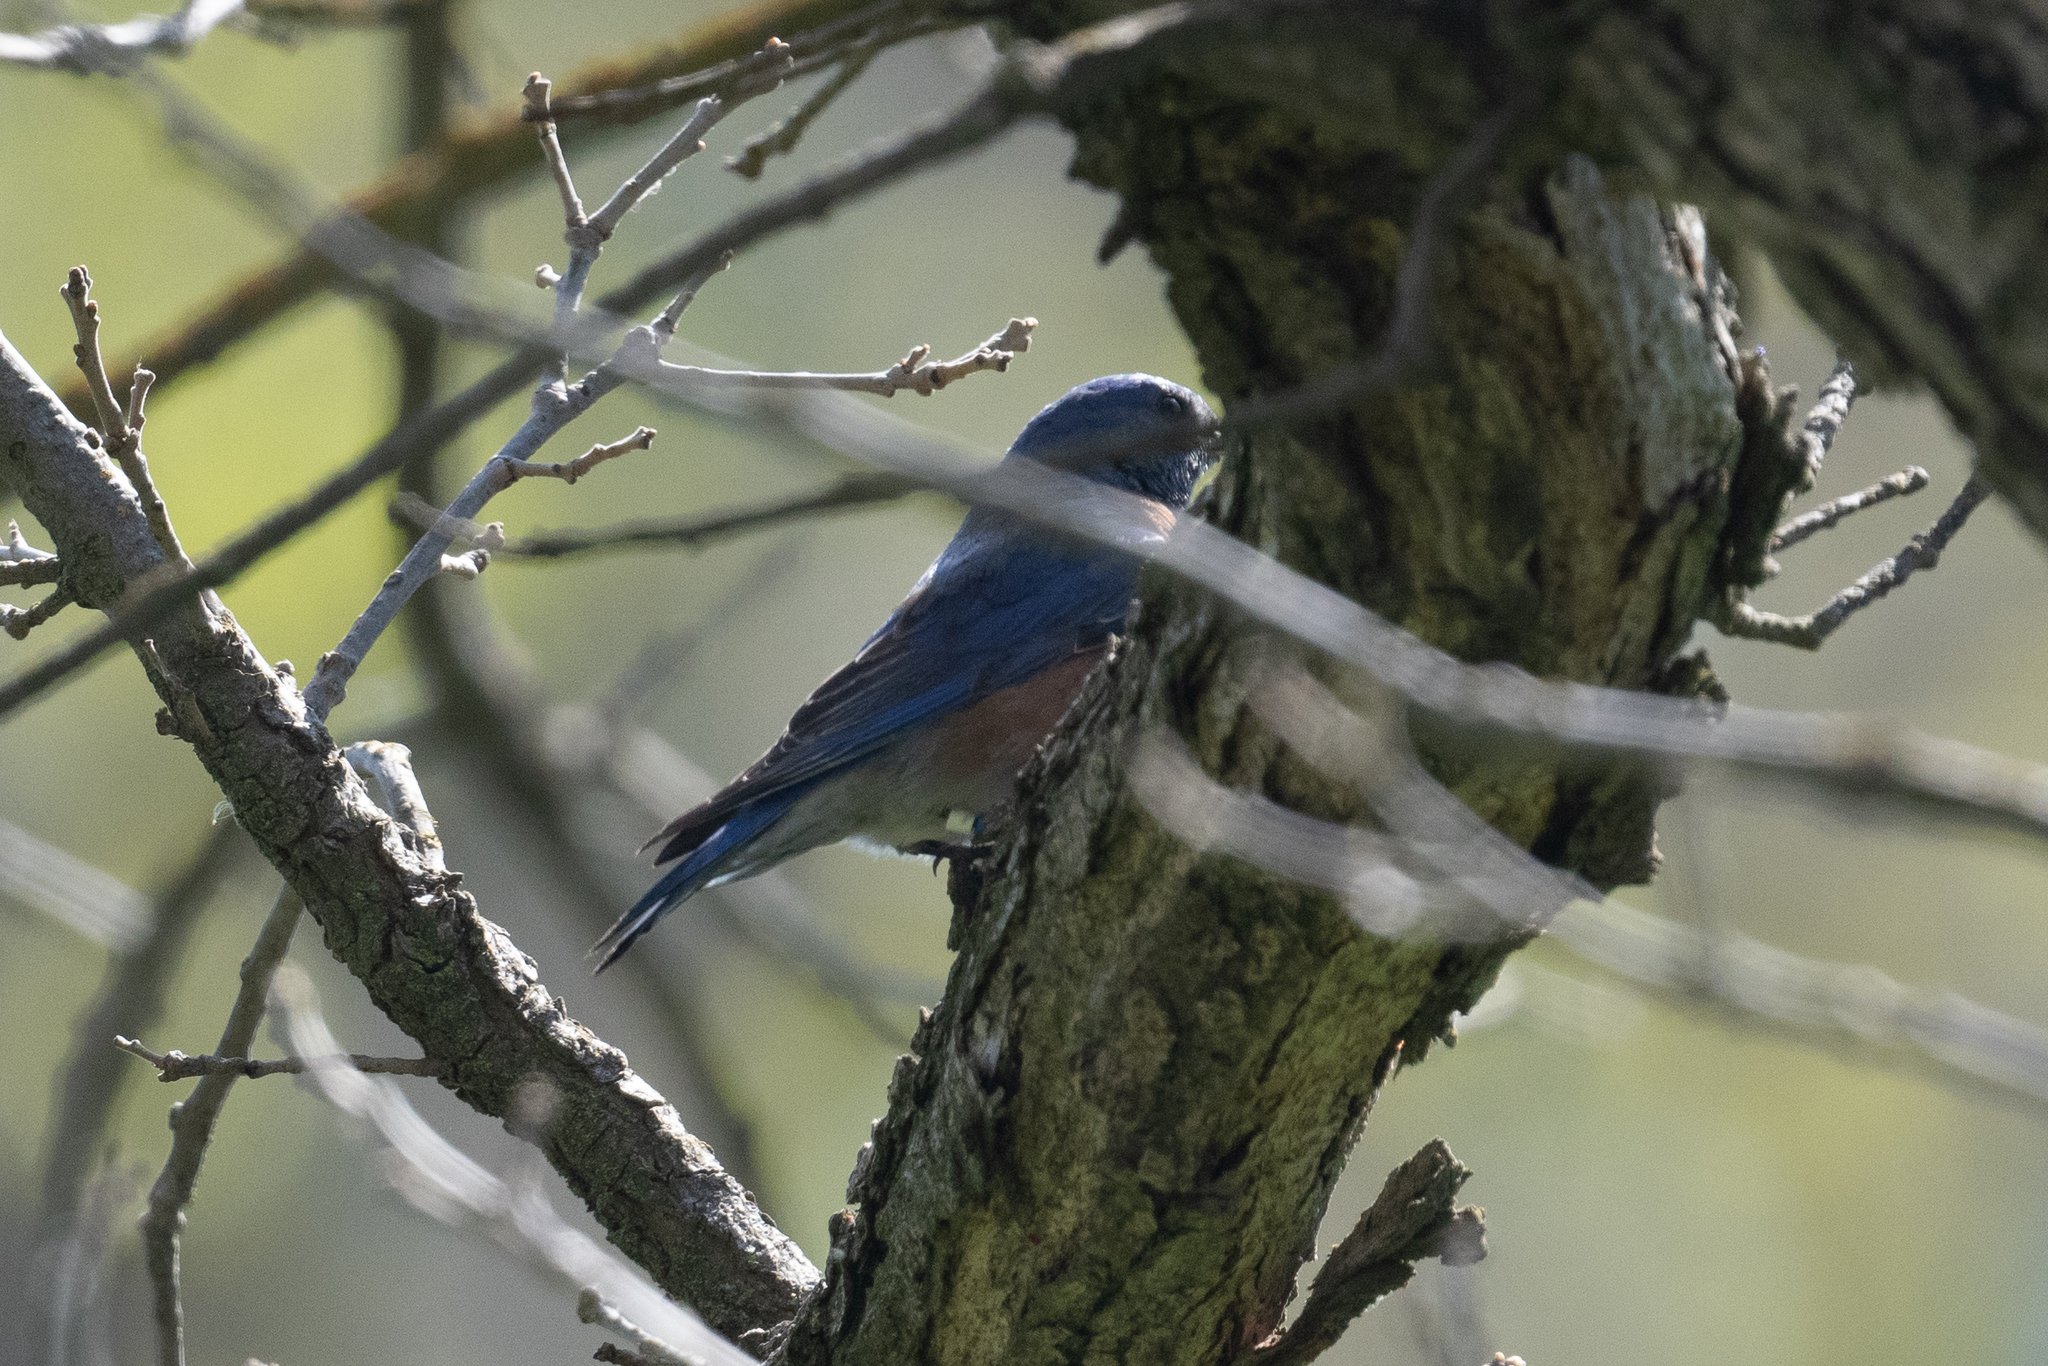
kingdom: Animalia
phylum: Chordata
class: Aves
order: Passeriformes
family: Turdidae
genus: Sialia
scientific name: Sialia mexicana
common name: Western bluebird
